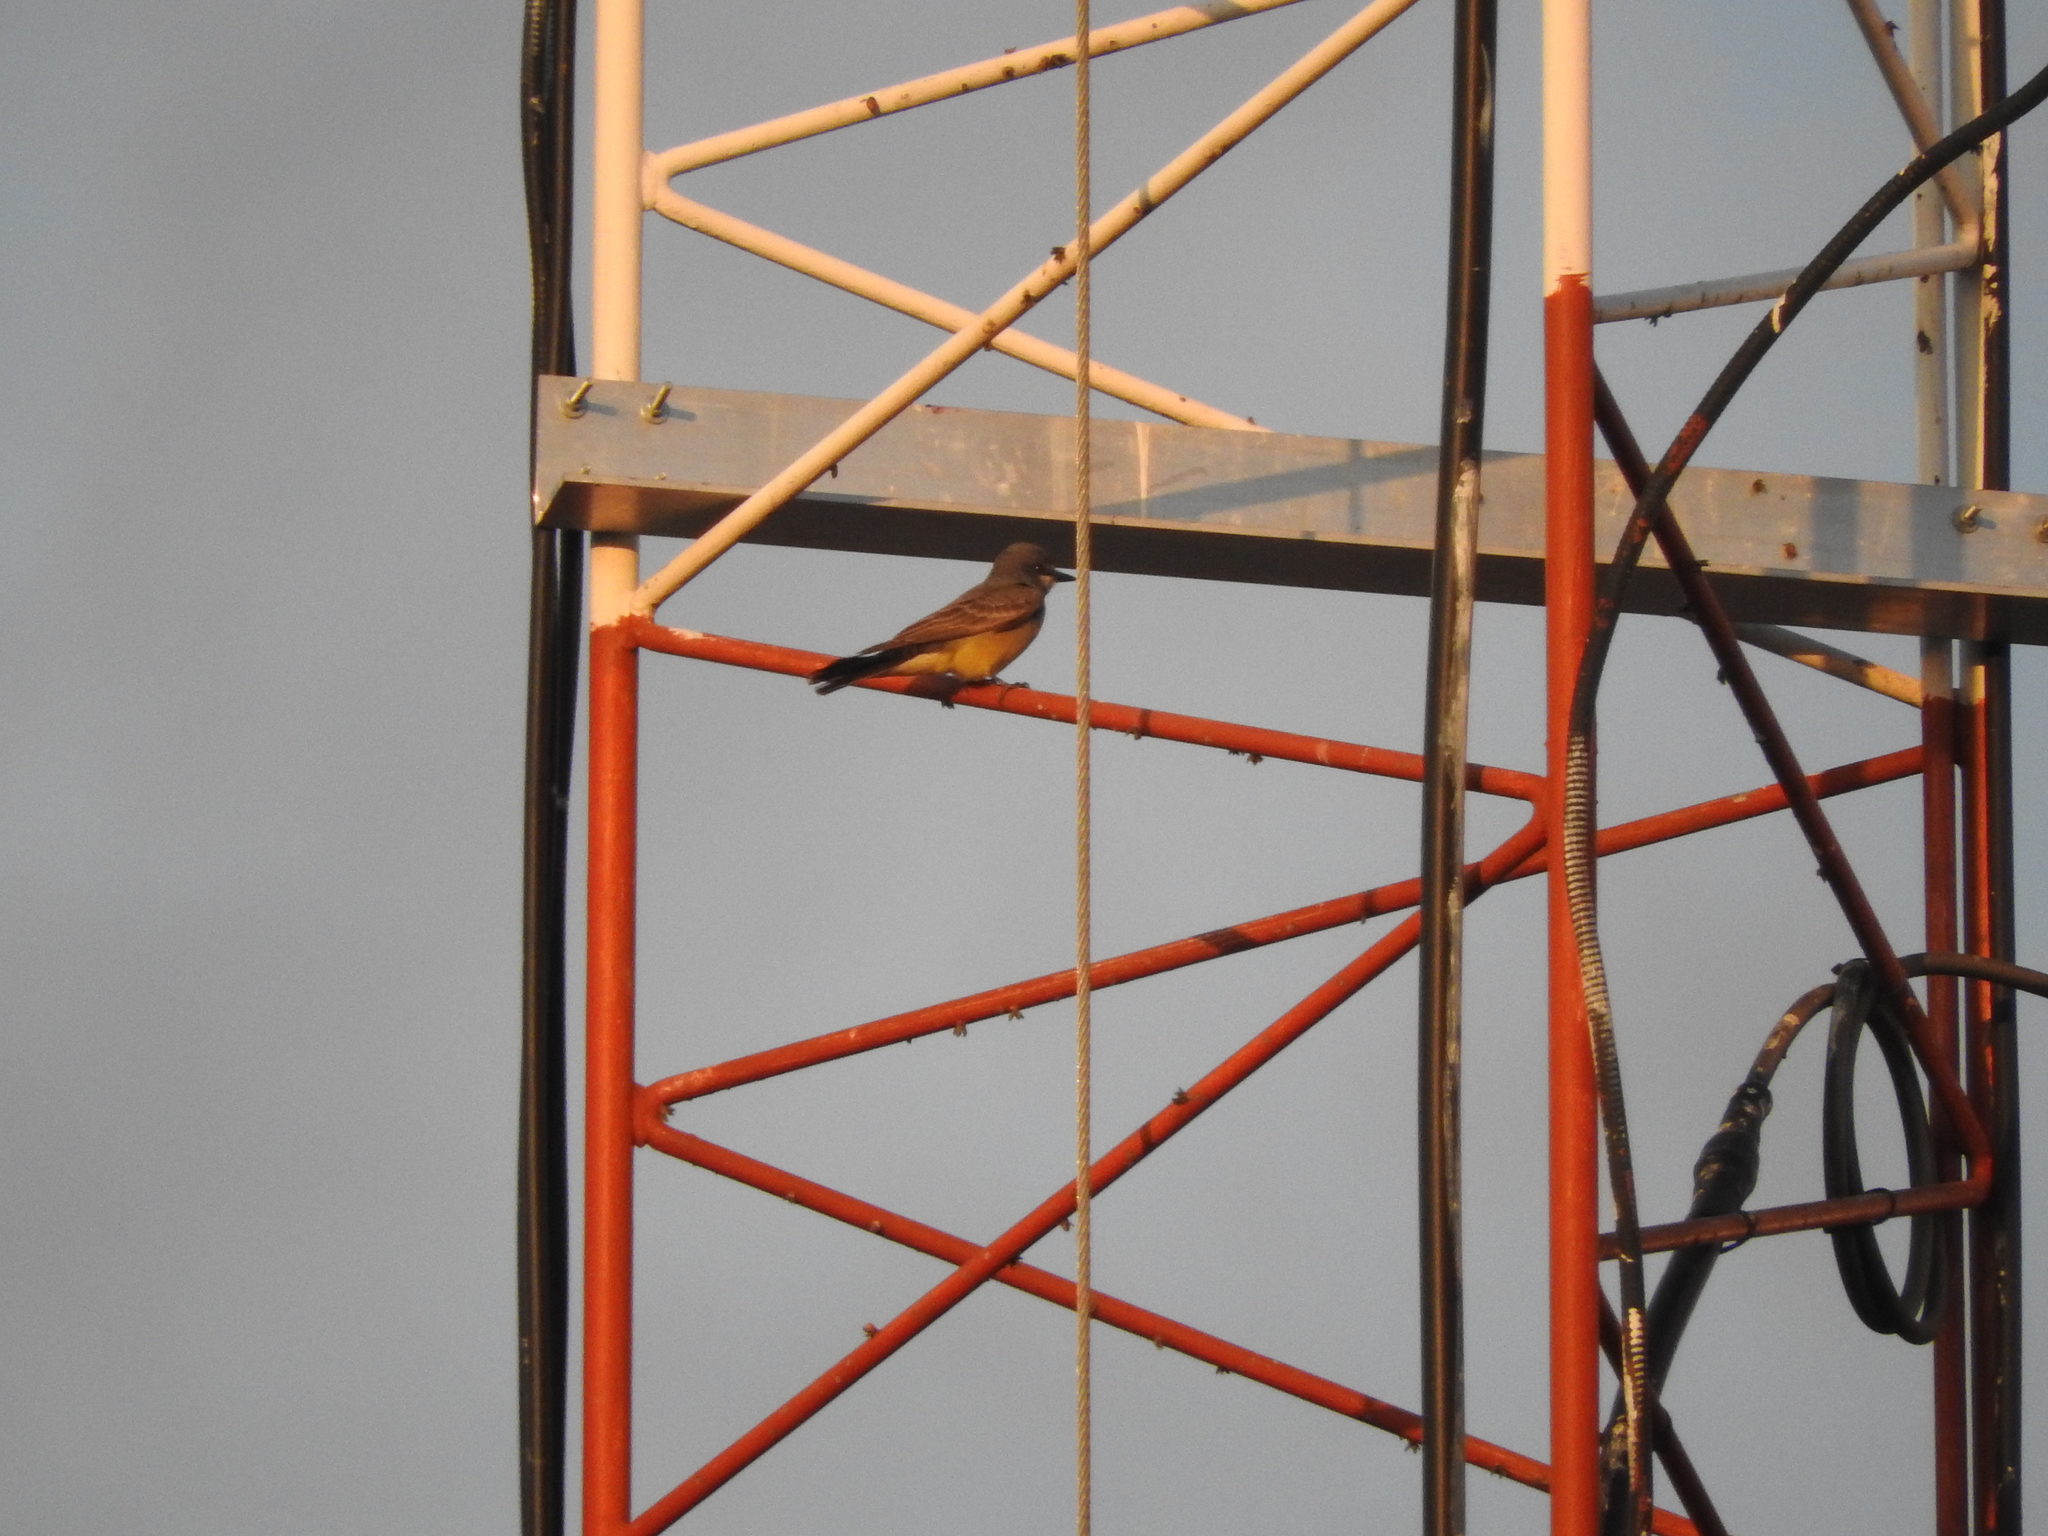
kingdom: Animalia
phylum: Chordata
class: Aves
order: Passeriformes
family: Tyrannidae
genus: Tyrannus
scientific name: Tyrannus vociferans
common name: Cassin's kingbird
